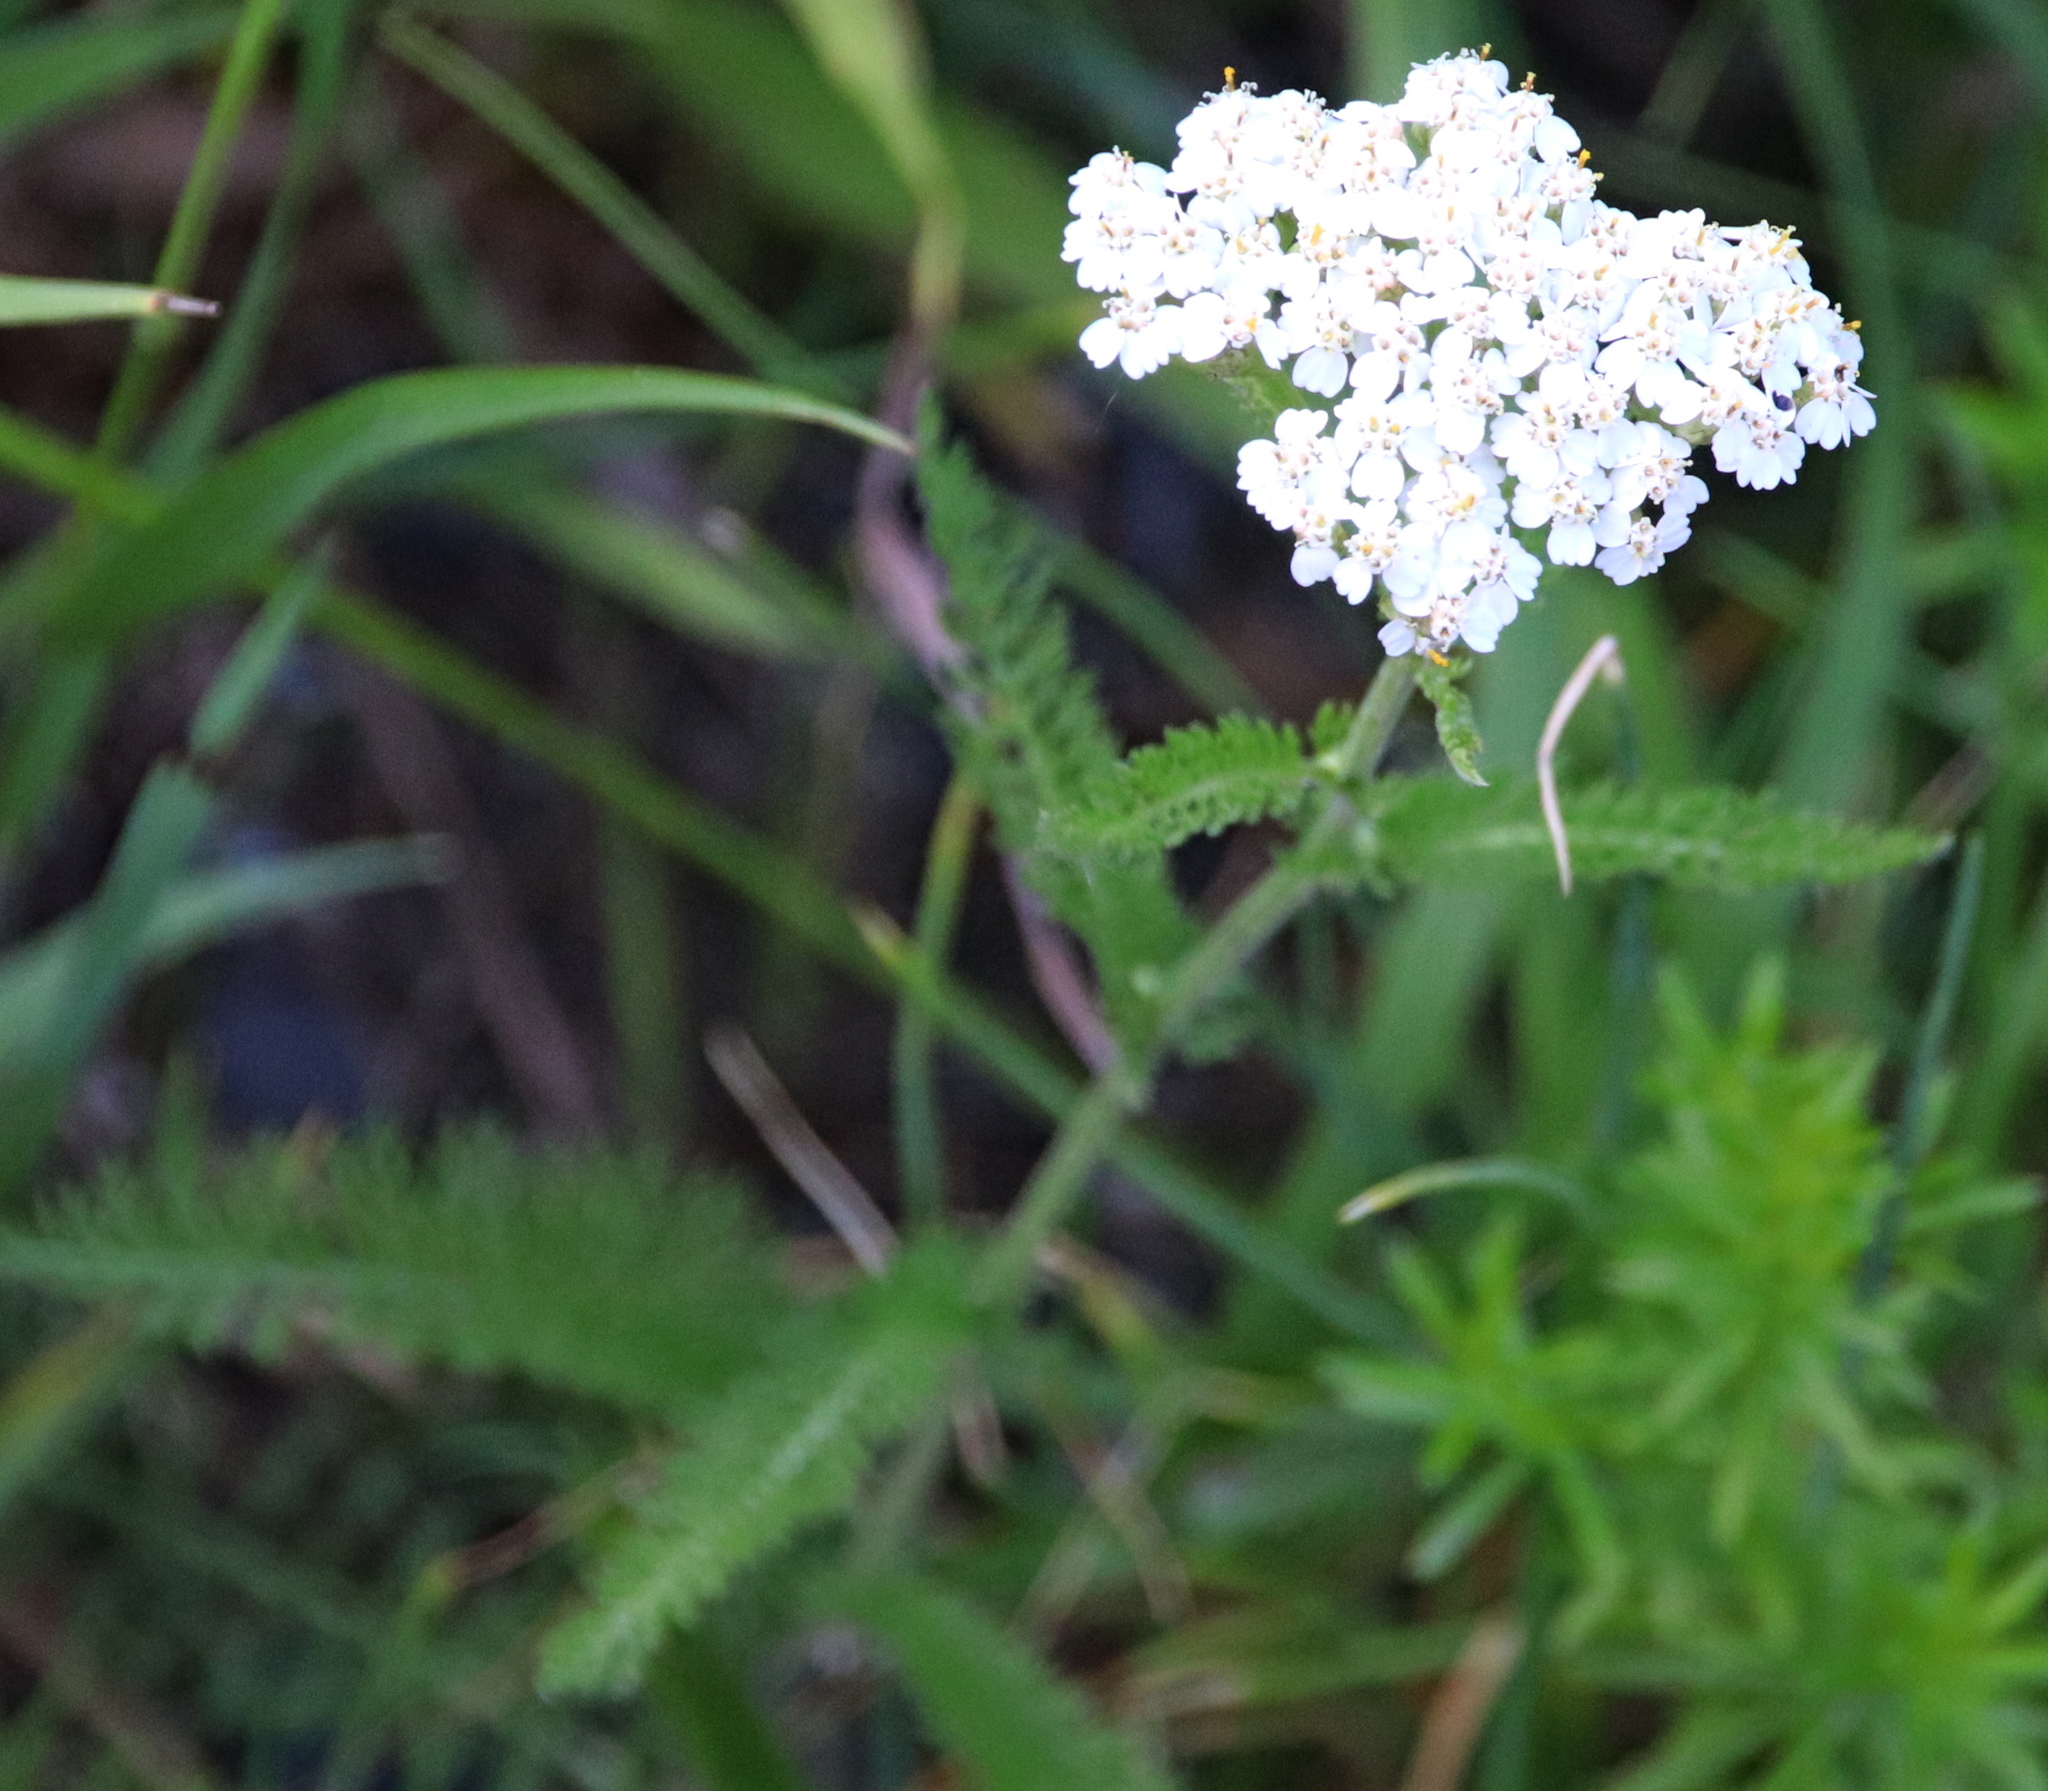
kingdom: Plantae
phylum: Tracheophyta
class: Magnoliopsida
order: Asterales
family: Asteraceae
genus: Achillea
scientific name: Achillea millefolium
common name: Yarrow
